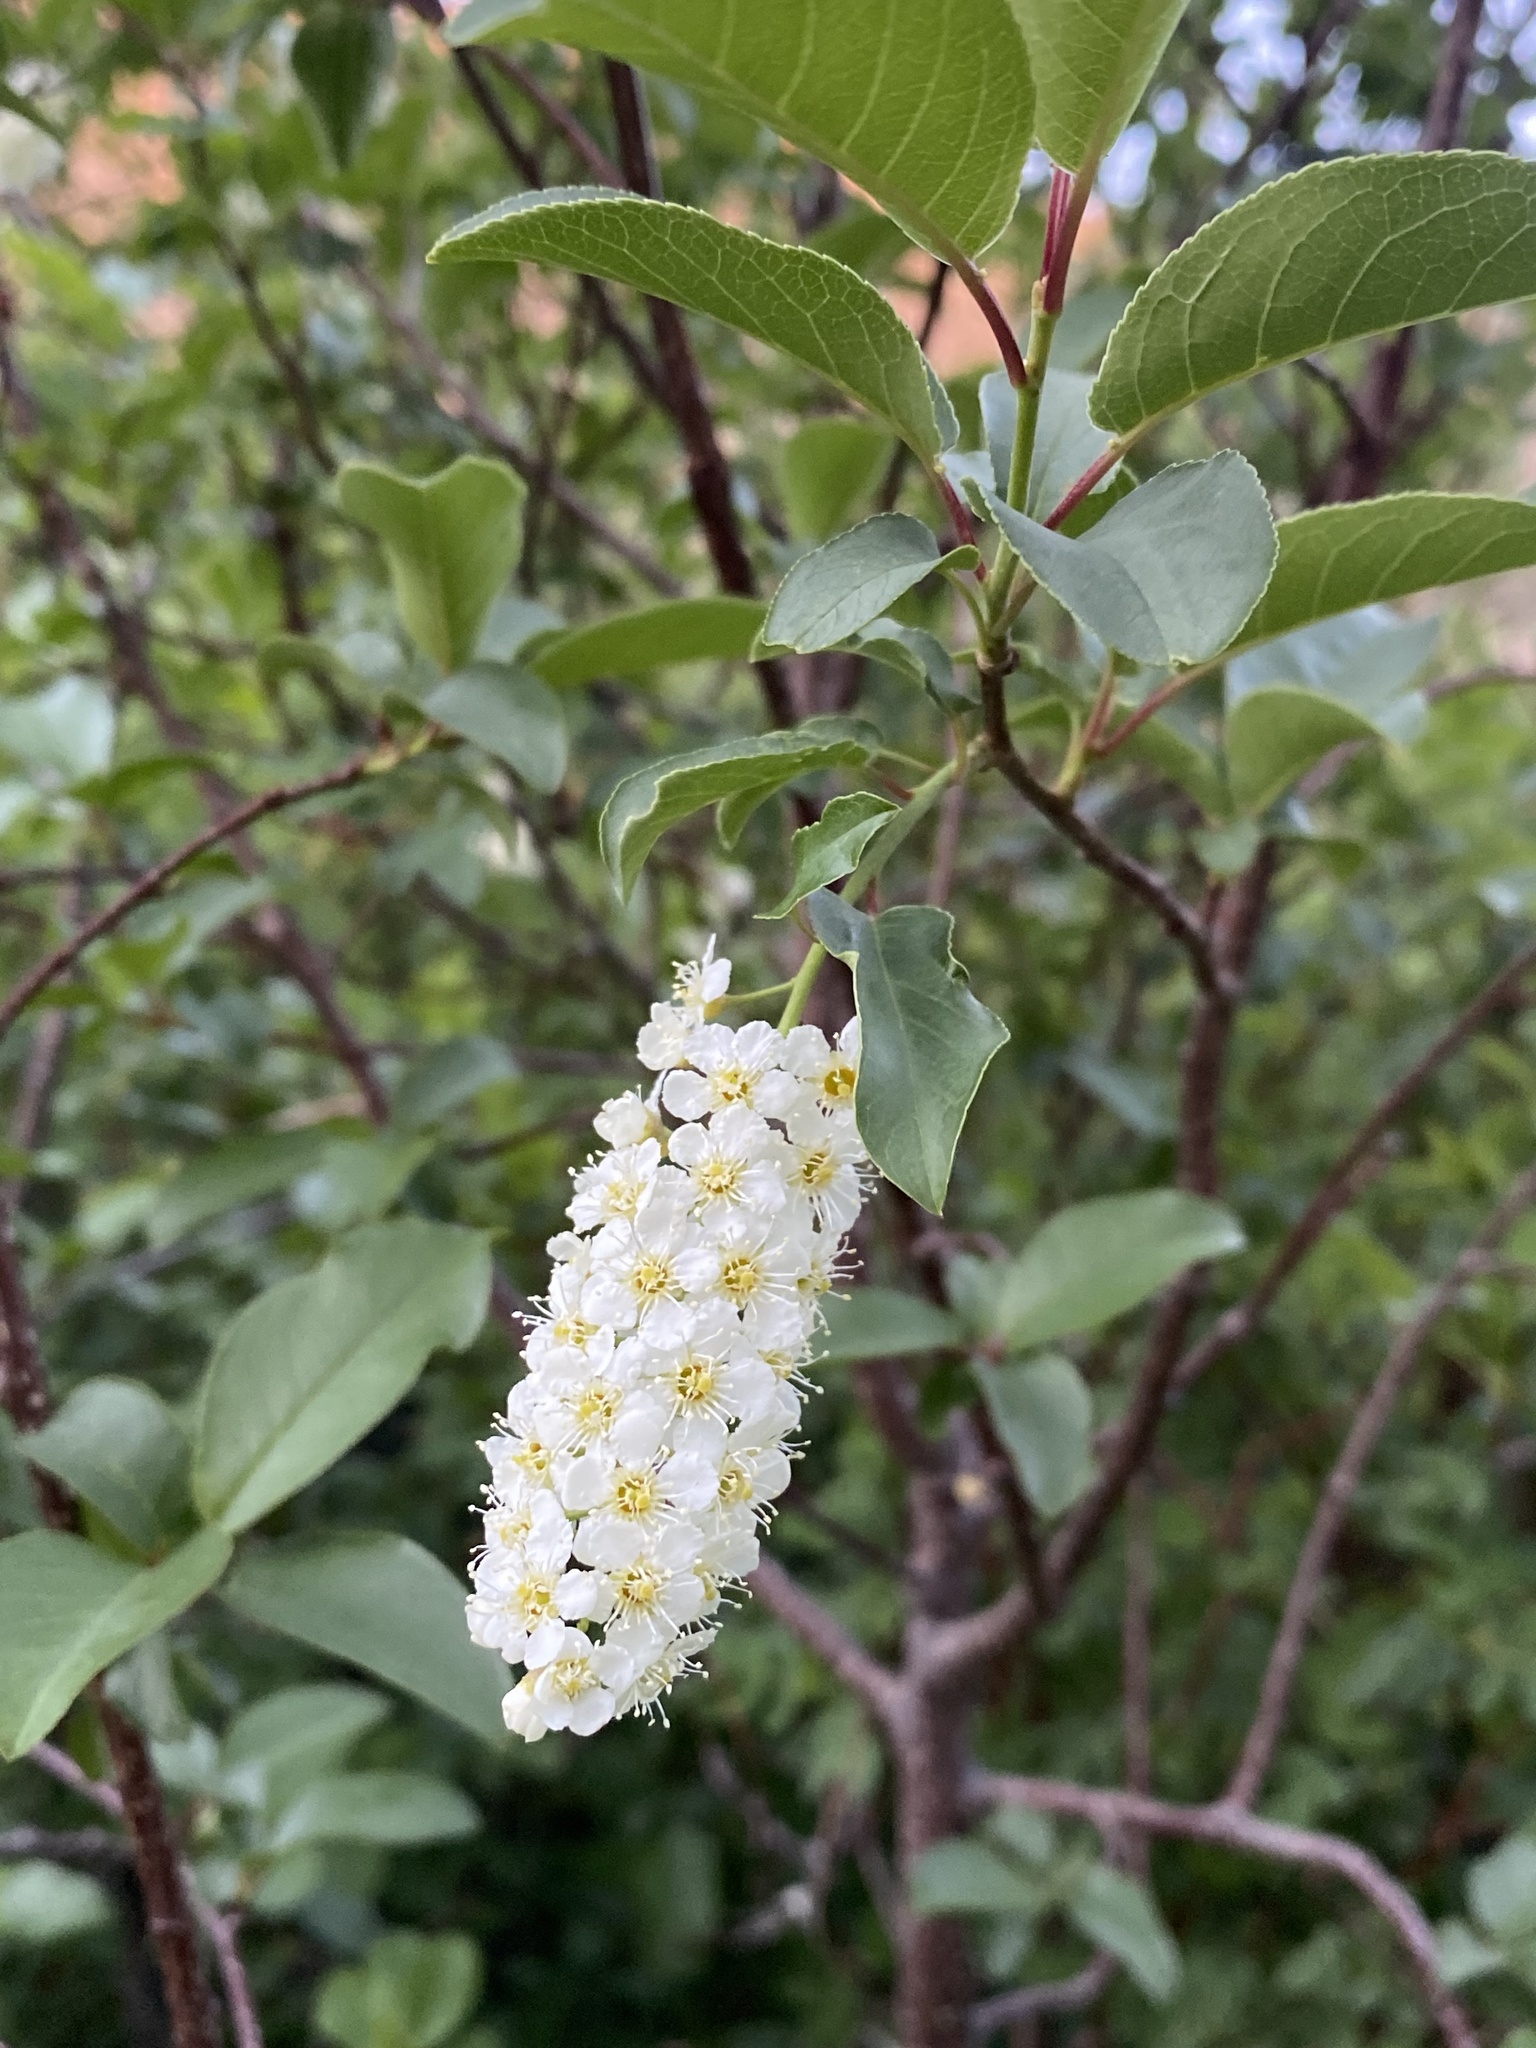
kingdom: Plantae
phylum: Tracheophyta
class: Magnoliopsida
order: Rosales
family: Rosaceae
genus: Prunus
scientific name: Prunus virginiana
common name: Chokecherry
